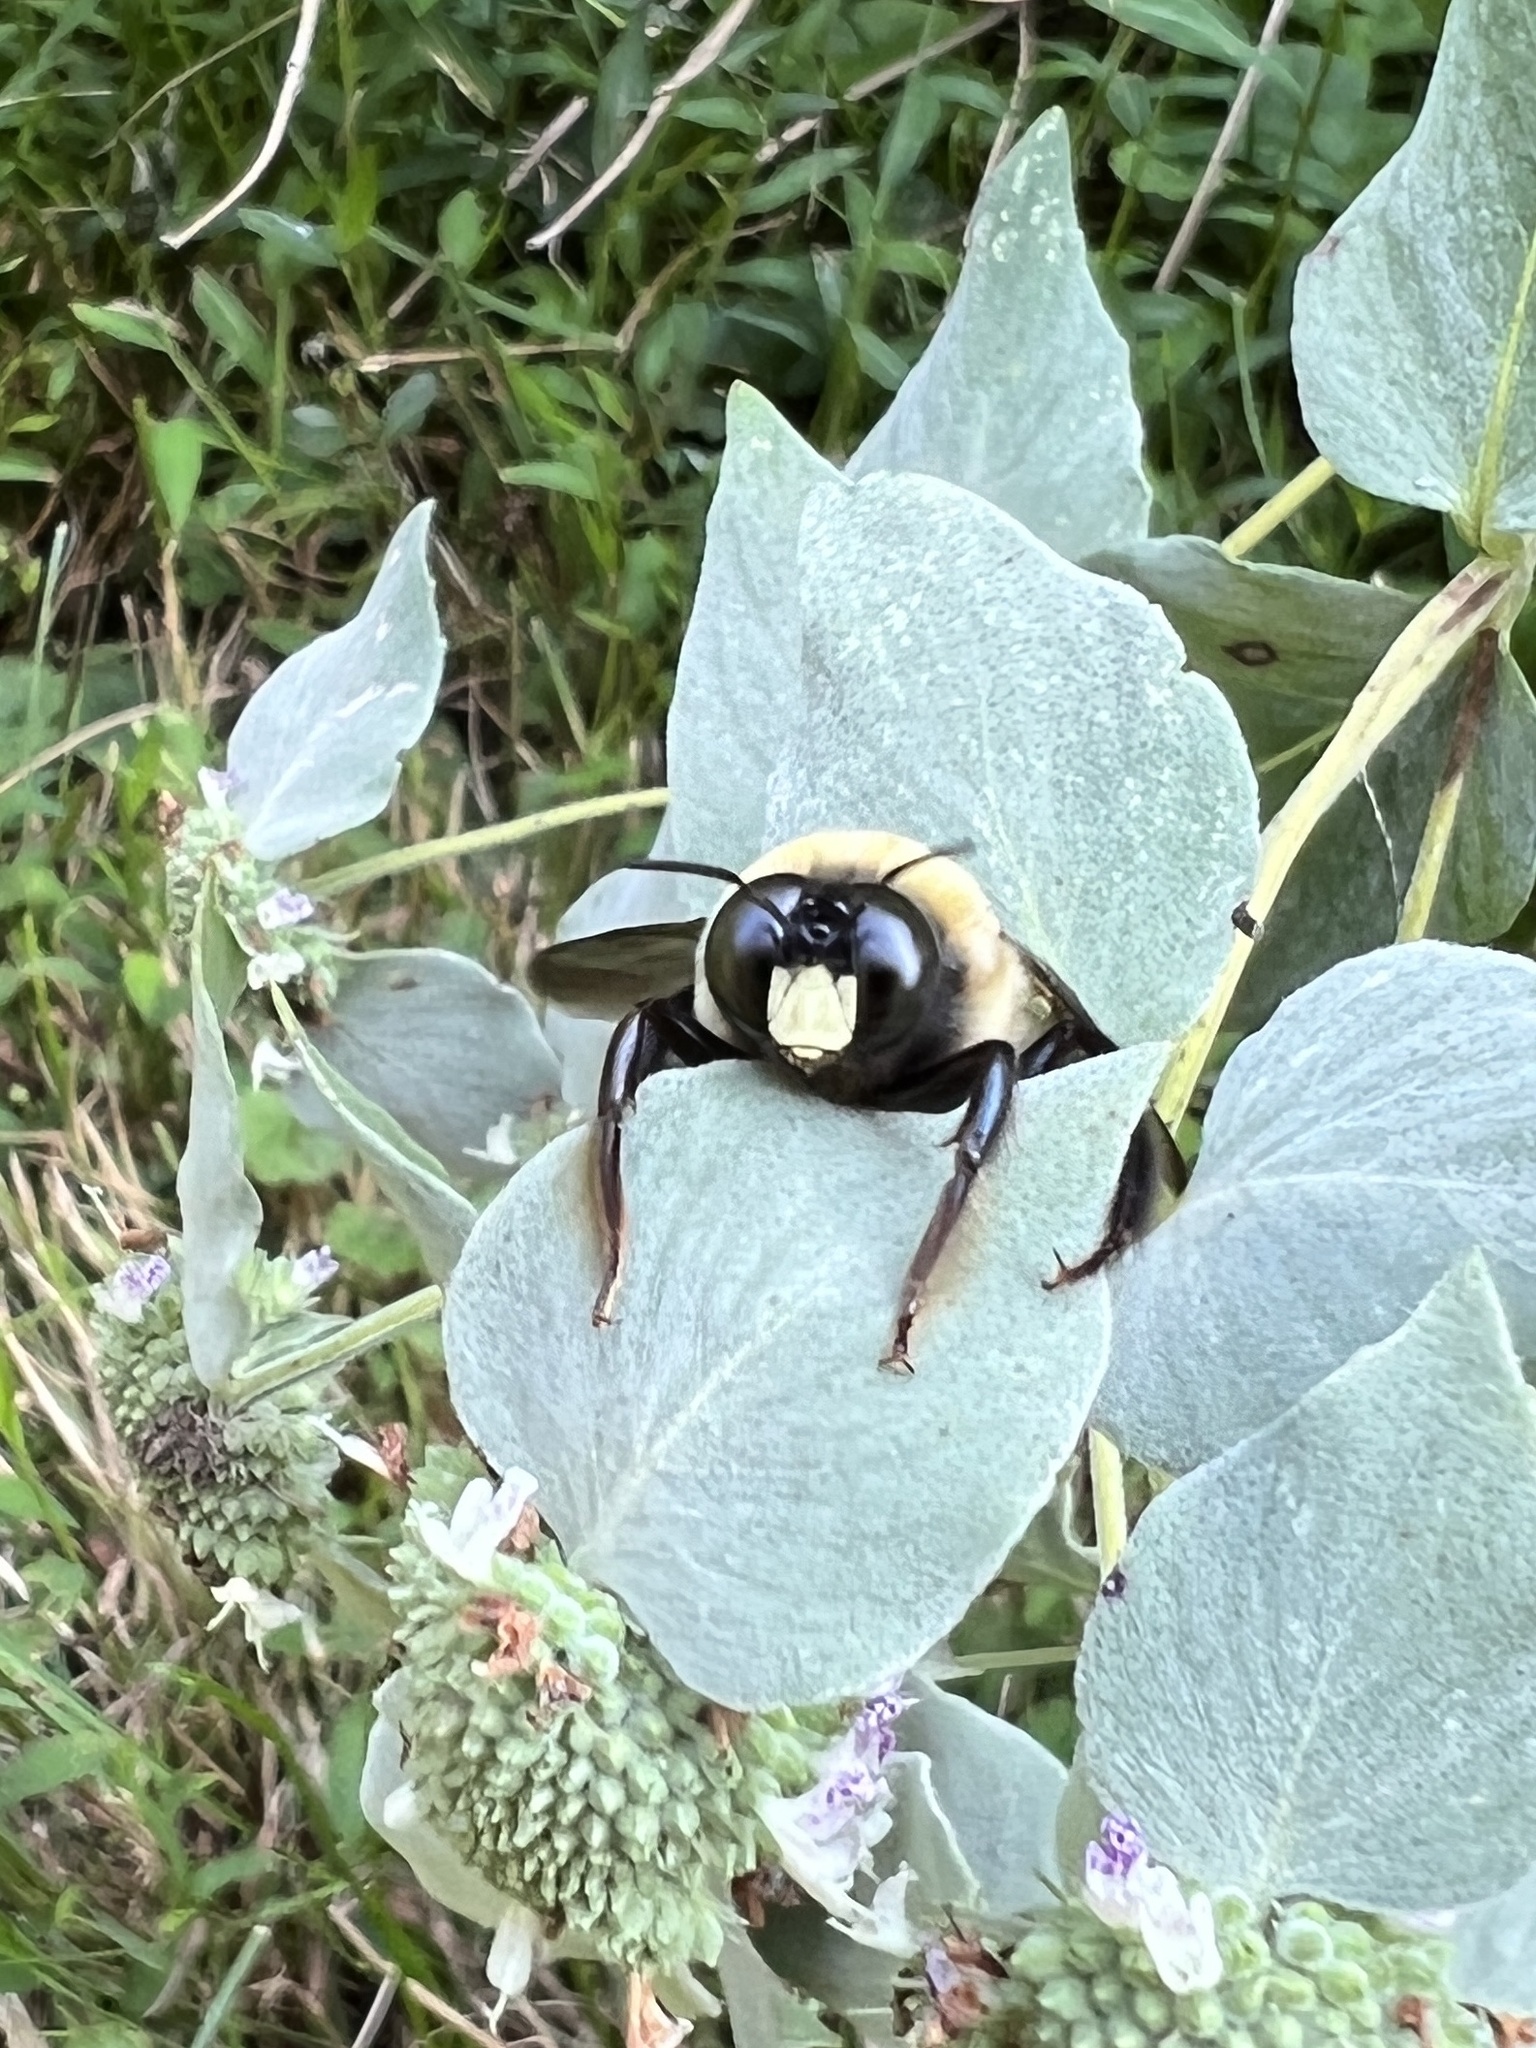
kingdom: Animalia
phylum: Arthropoda
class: Insecta
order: Hymenoptera
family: Apidae
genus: Xylocopa
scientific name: Xylocopa virginica
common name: Carpenter bee
